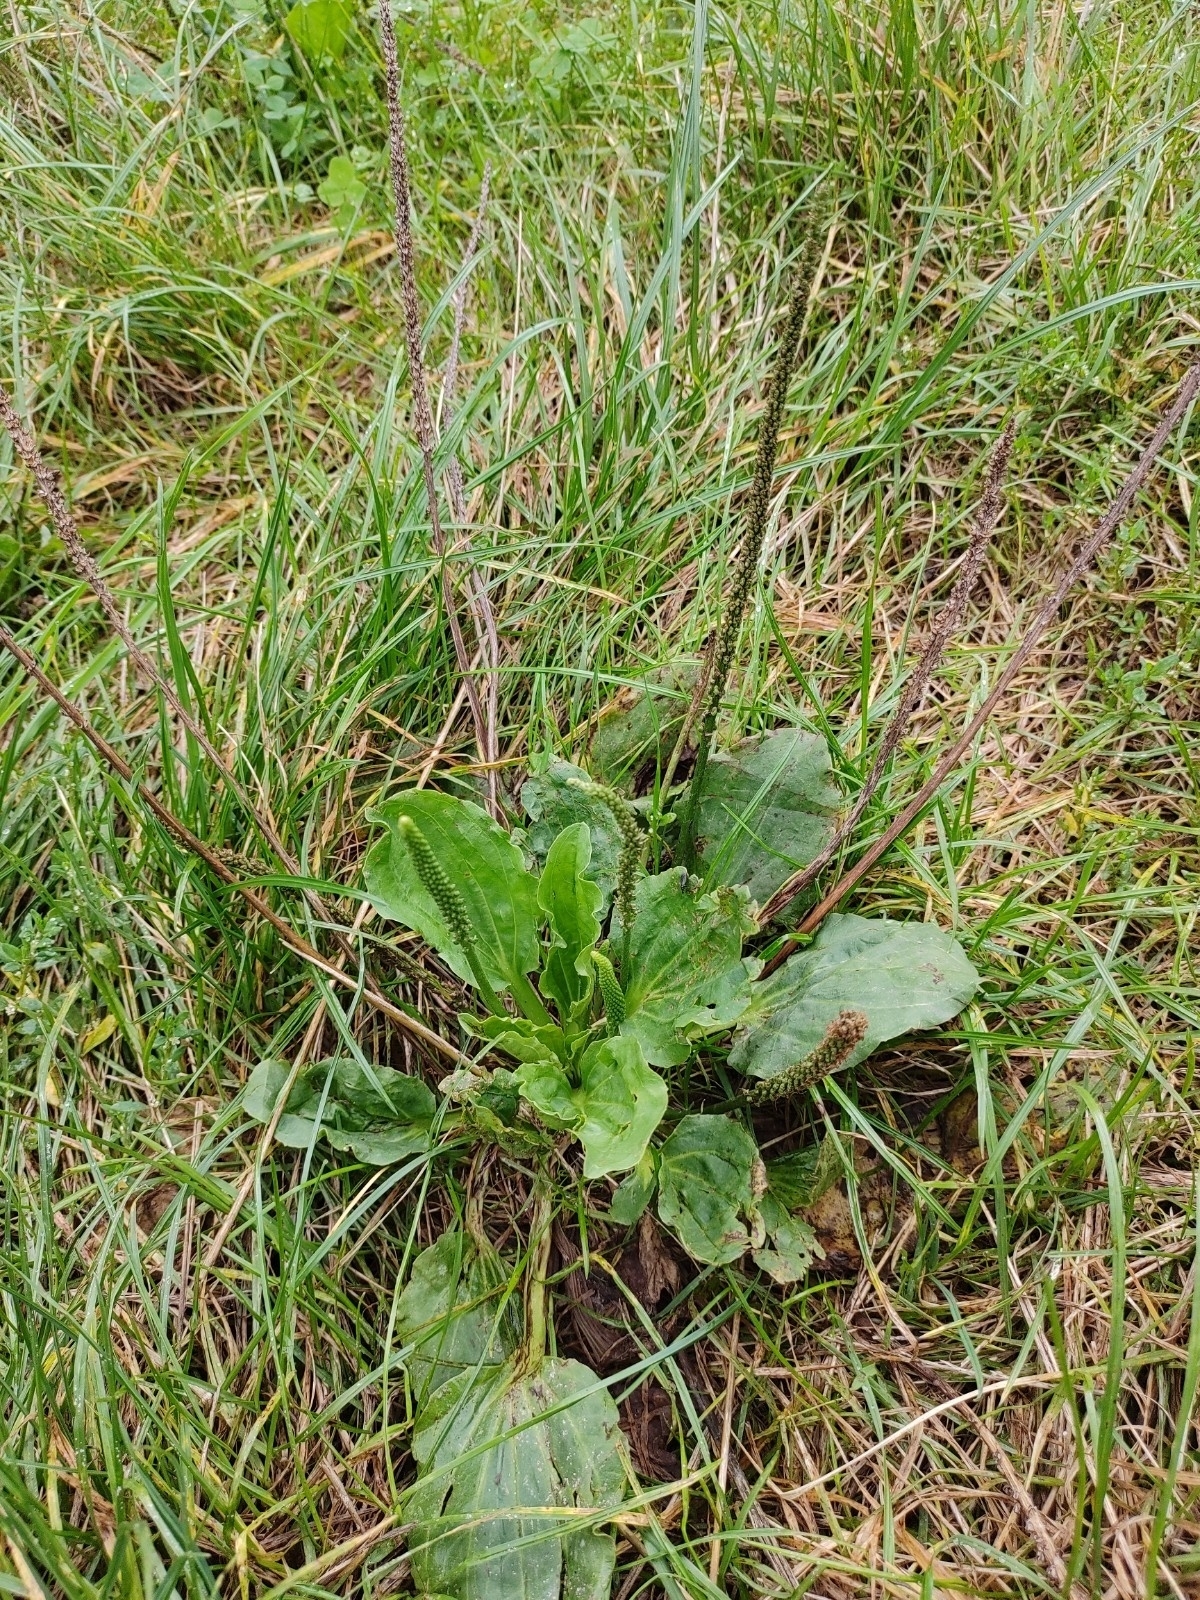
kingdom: Plantae
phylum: Tracheophyta
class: Magnoliopsida
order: Lamiales
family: Plantaginaceae
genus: Plantago
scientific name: Plantago major
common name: Common plantain
